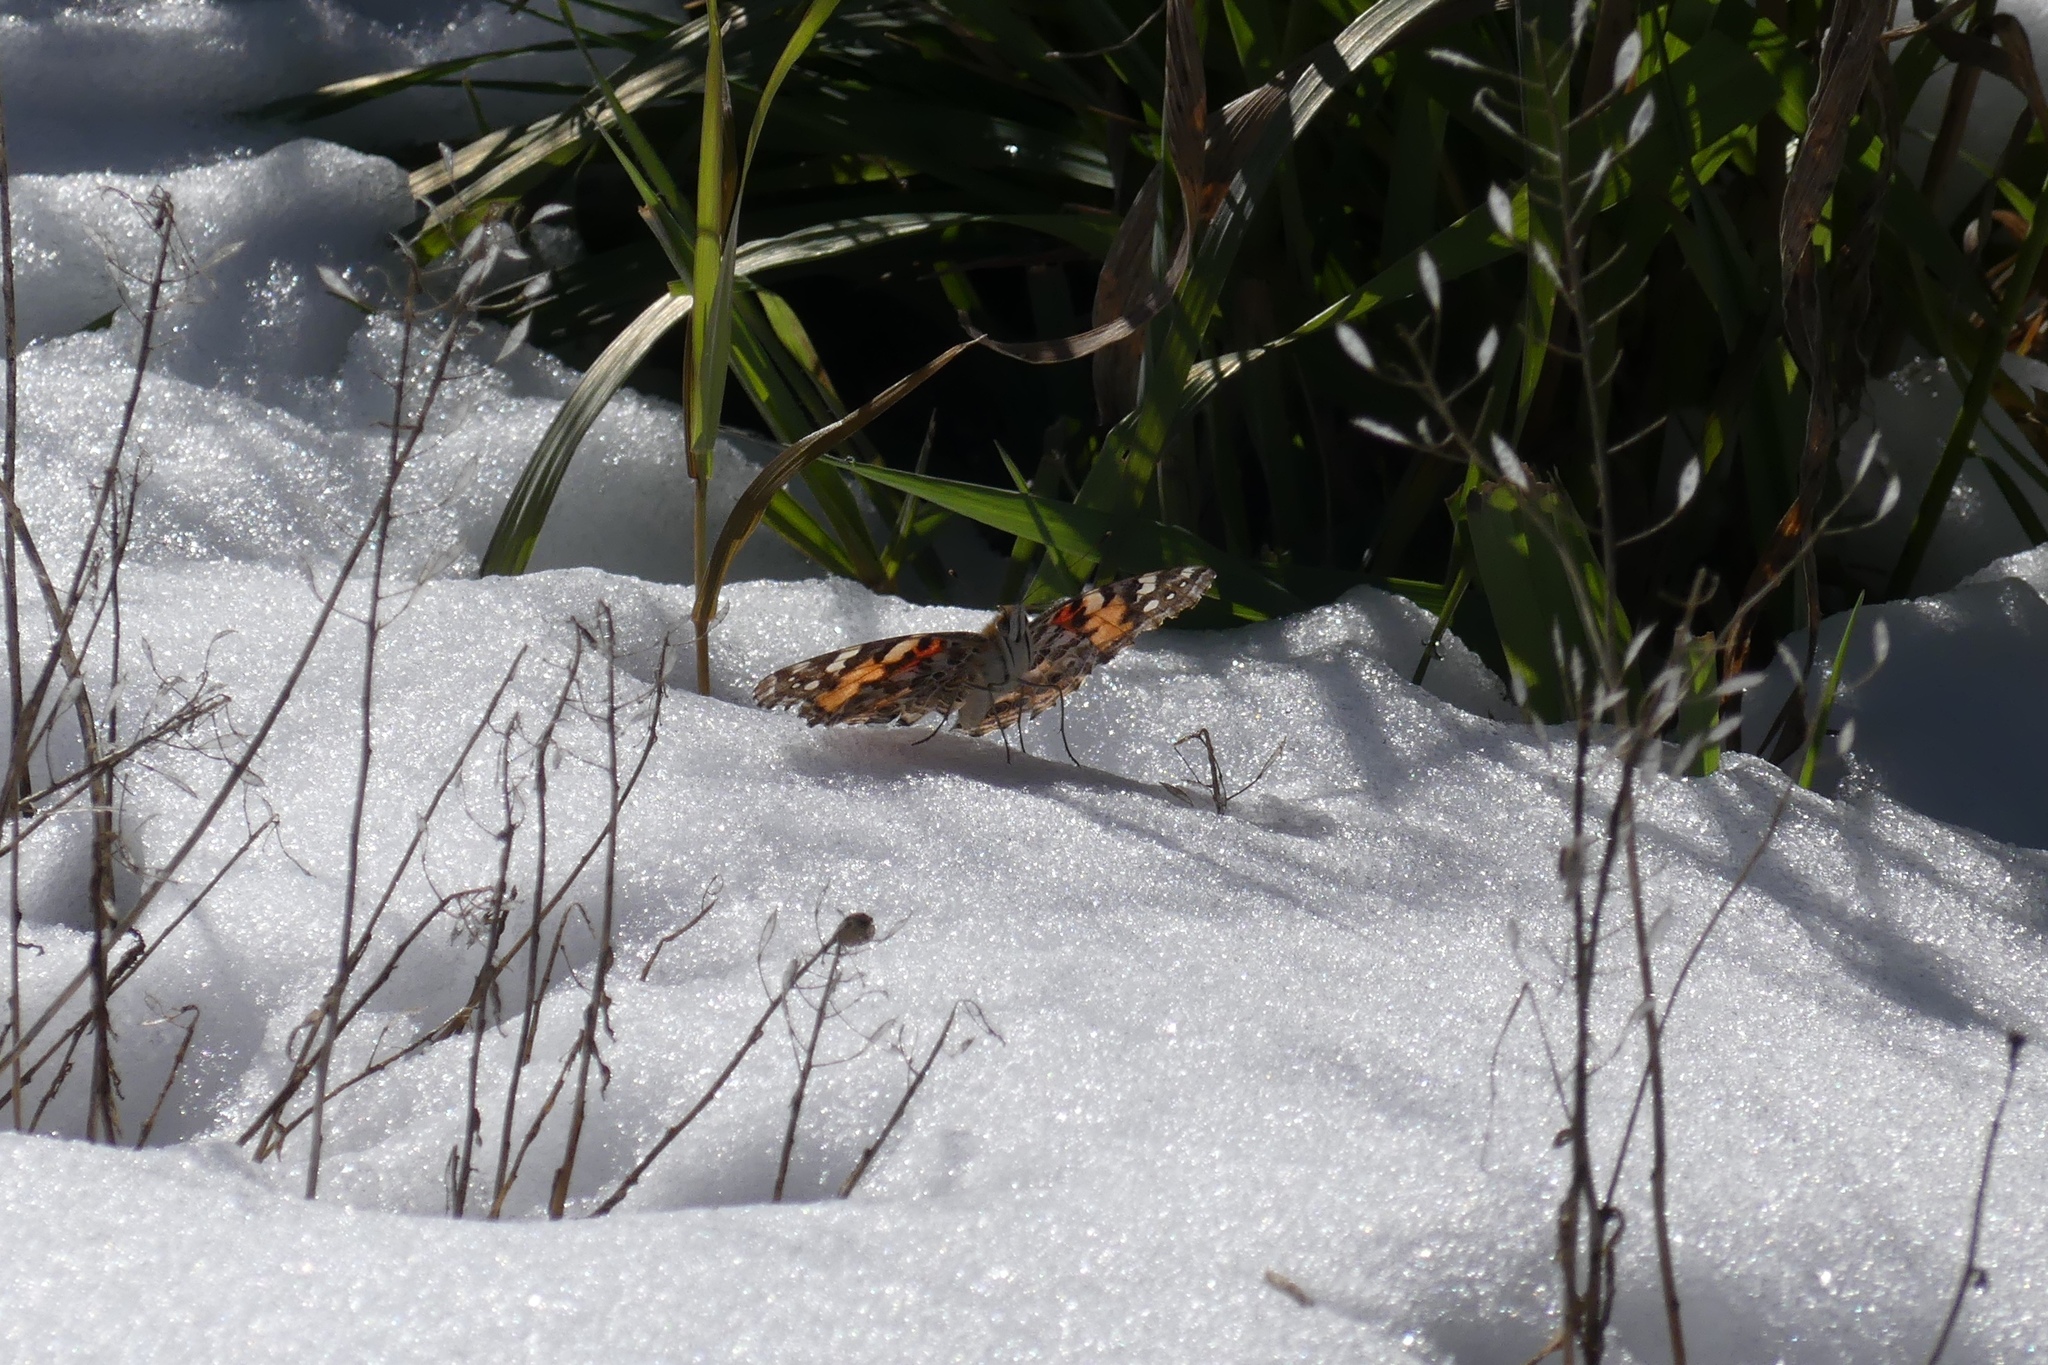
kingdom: Animalia
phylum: Arthropoda
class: Insecta
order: Lepidoptera
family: Nymphalidae
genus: Vanessa
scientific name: Vanessa cardui
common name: Painted lady
